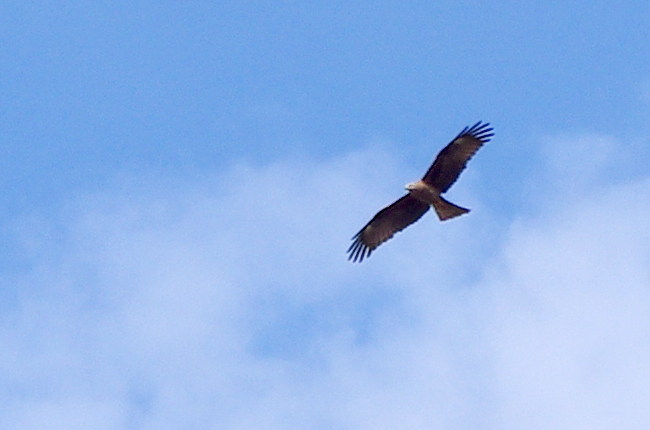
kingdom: Animalia
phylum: Chordata
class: Aves
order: Accipitriformes
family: Accipitridae
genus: Milvus
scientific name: Milvus migrans
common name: Black kite
